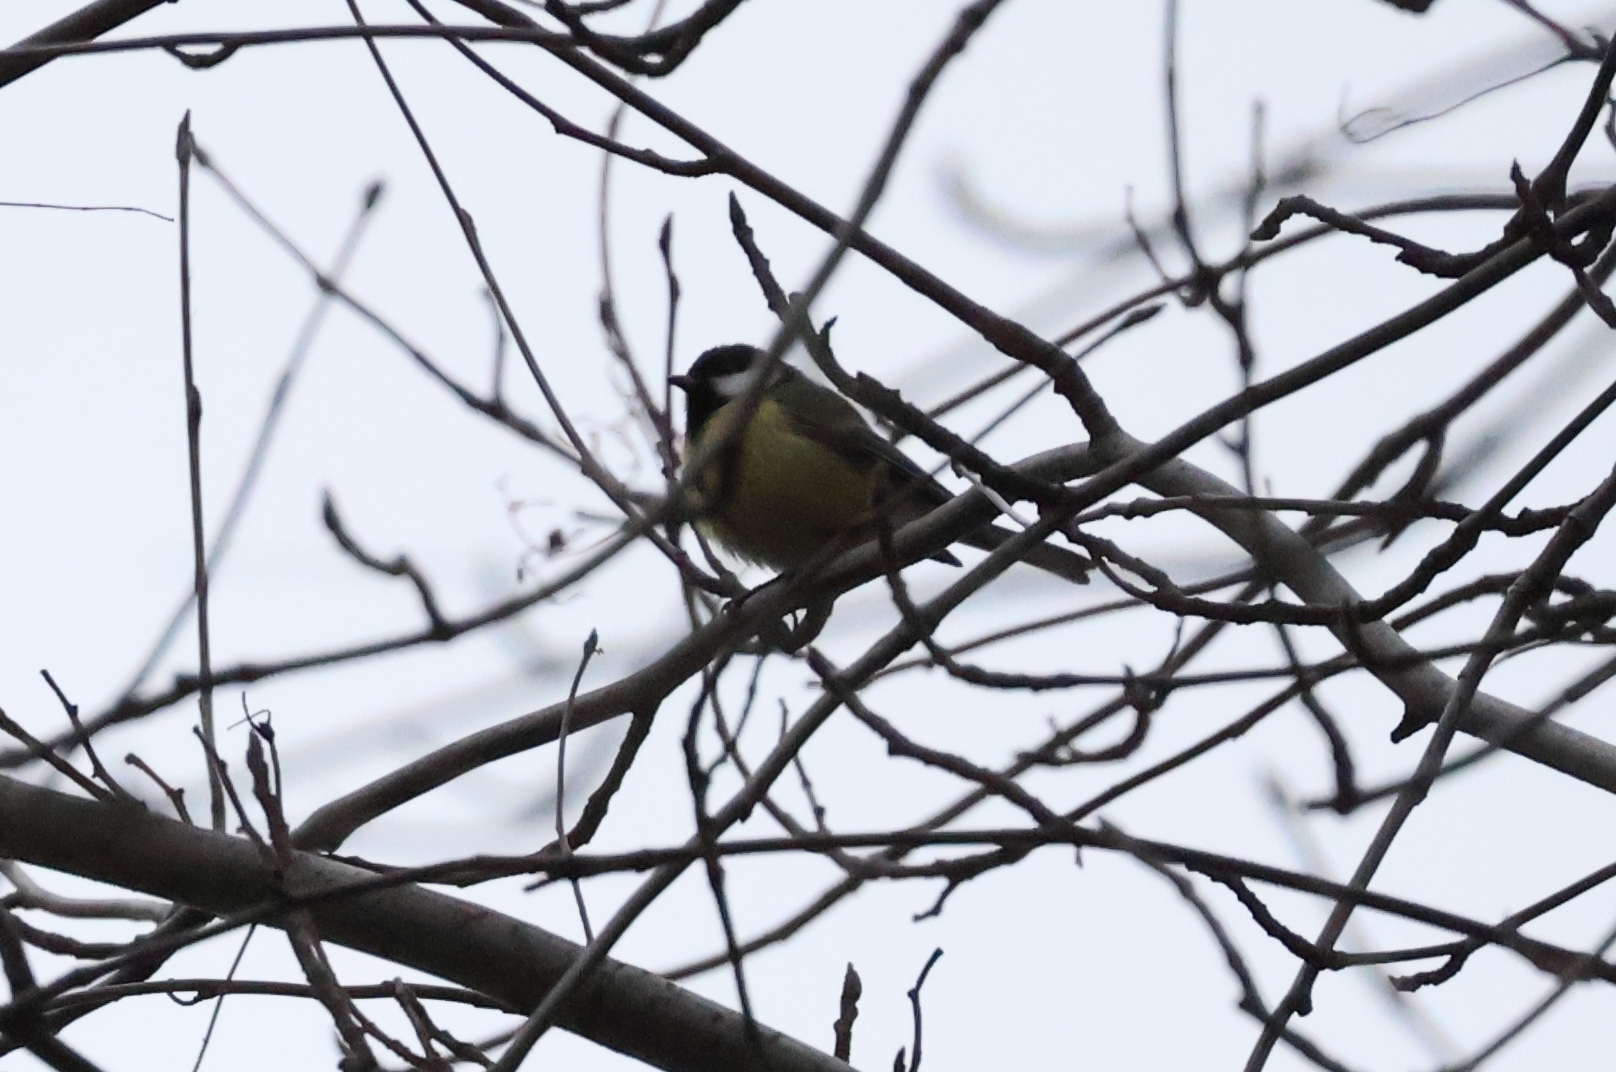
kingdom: Animalia
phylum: Chordata
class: Aves
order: Passeriformes
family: Paridae
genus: Parus
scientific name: Parus major
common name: Great tit
